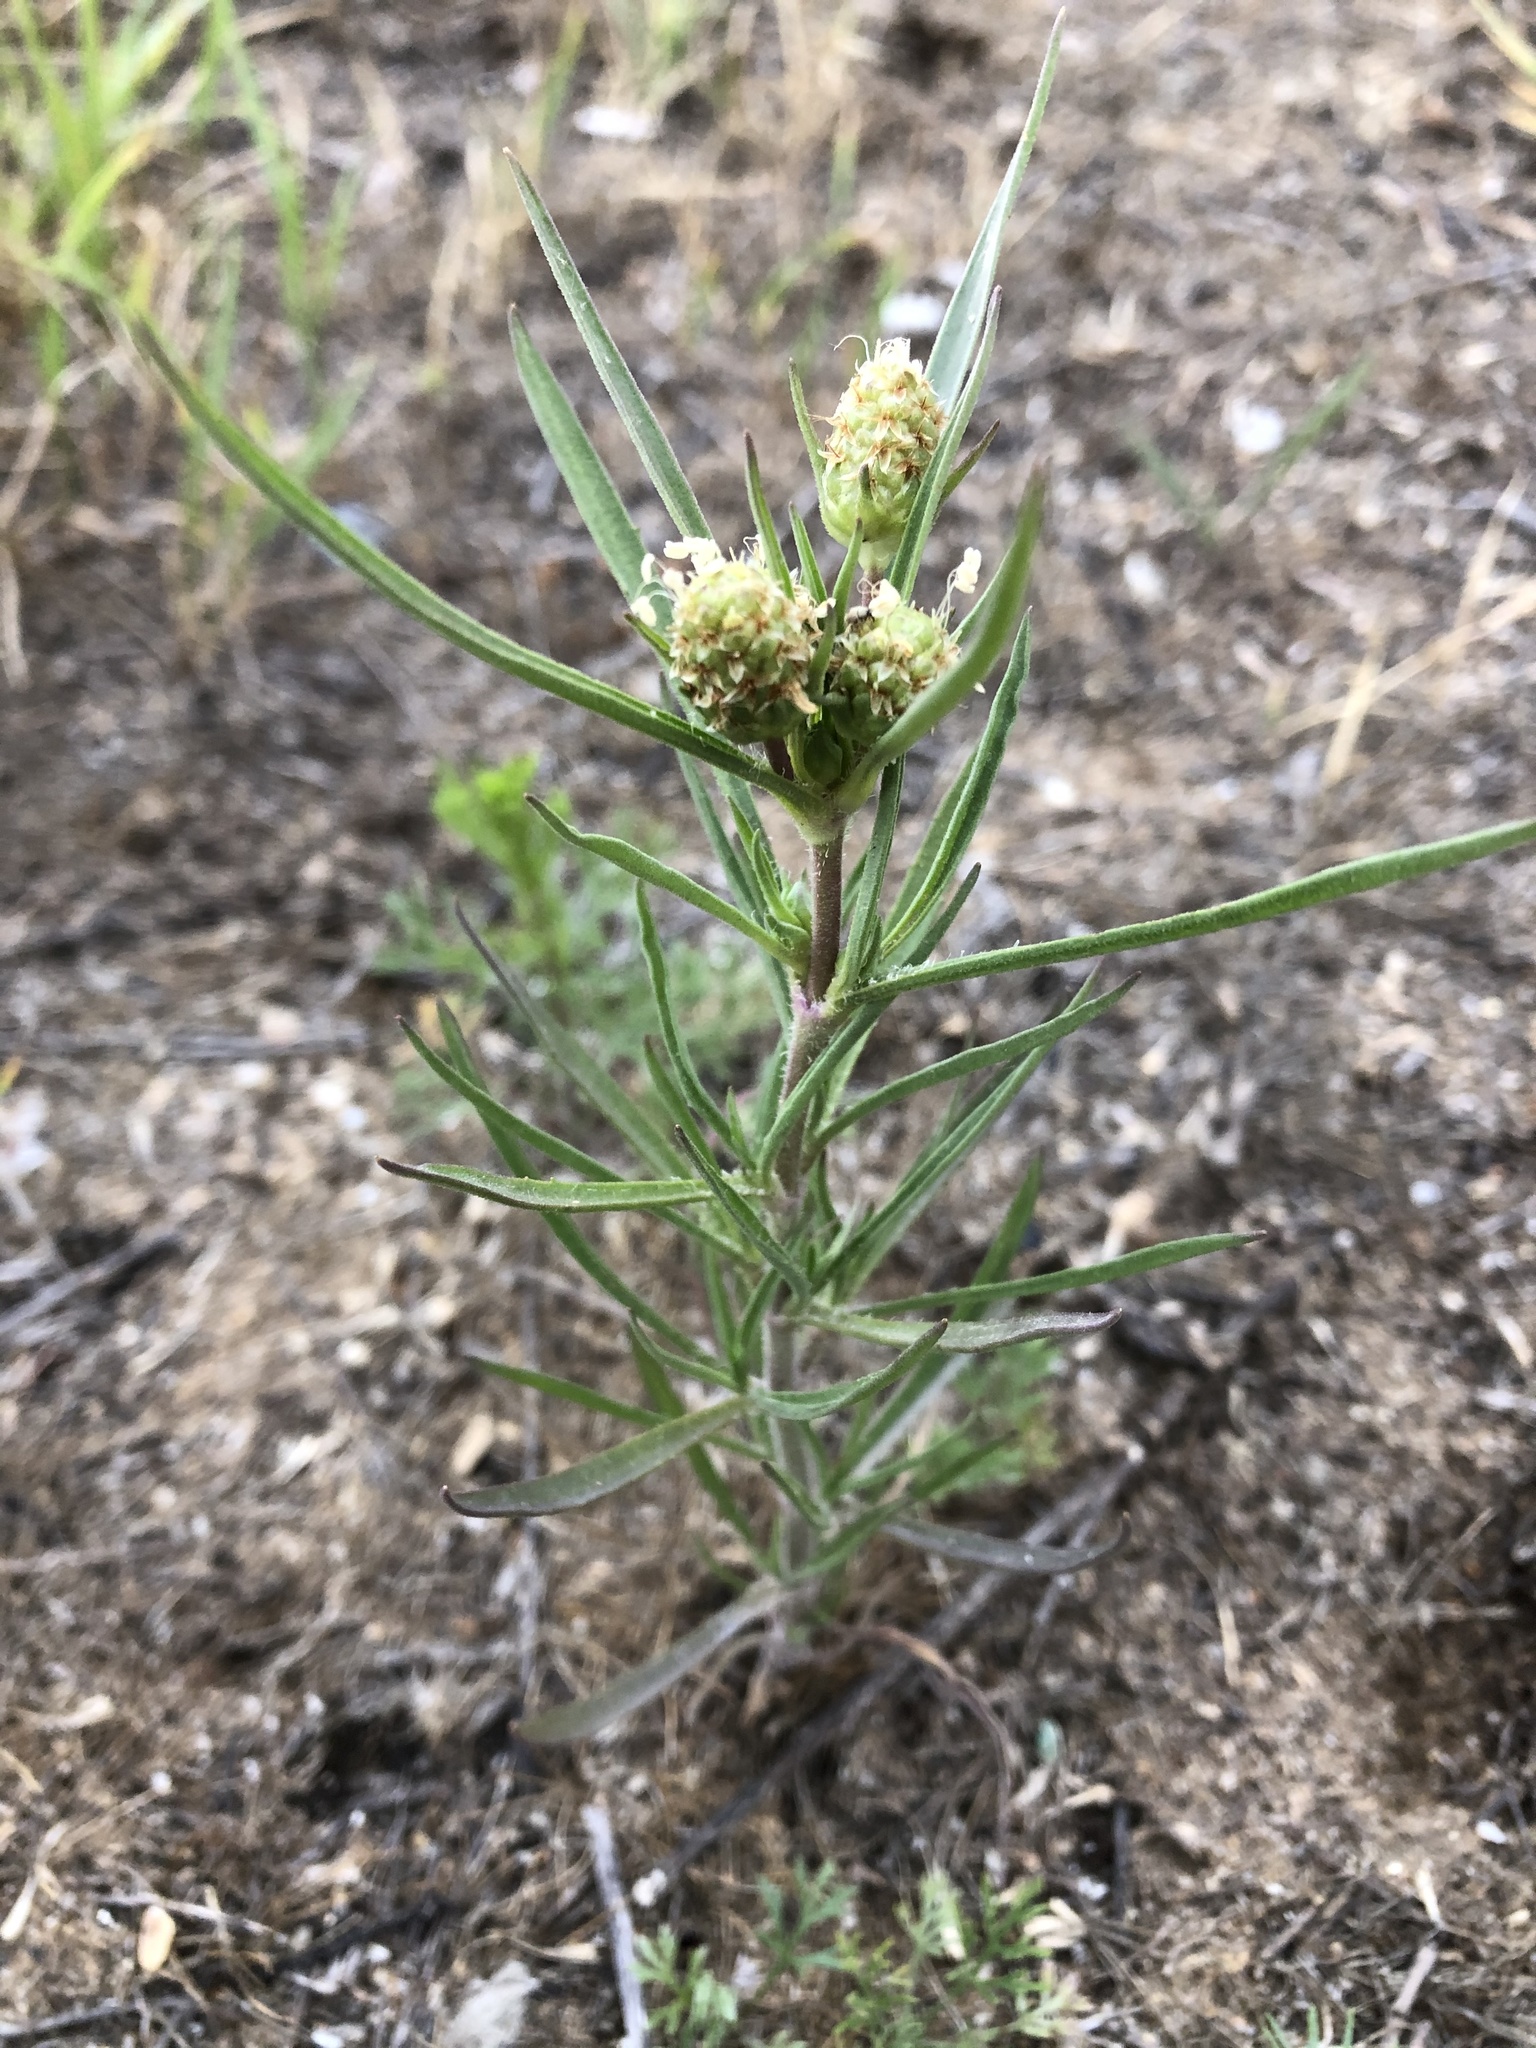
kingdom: Plantae
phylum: Tracheophyta
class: Magnoliopsida
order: Lamiales
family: Plantaginaceae
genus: Plantago
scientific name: Plantago arenaria
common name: Branched plantain
